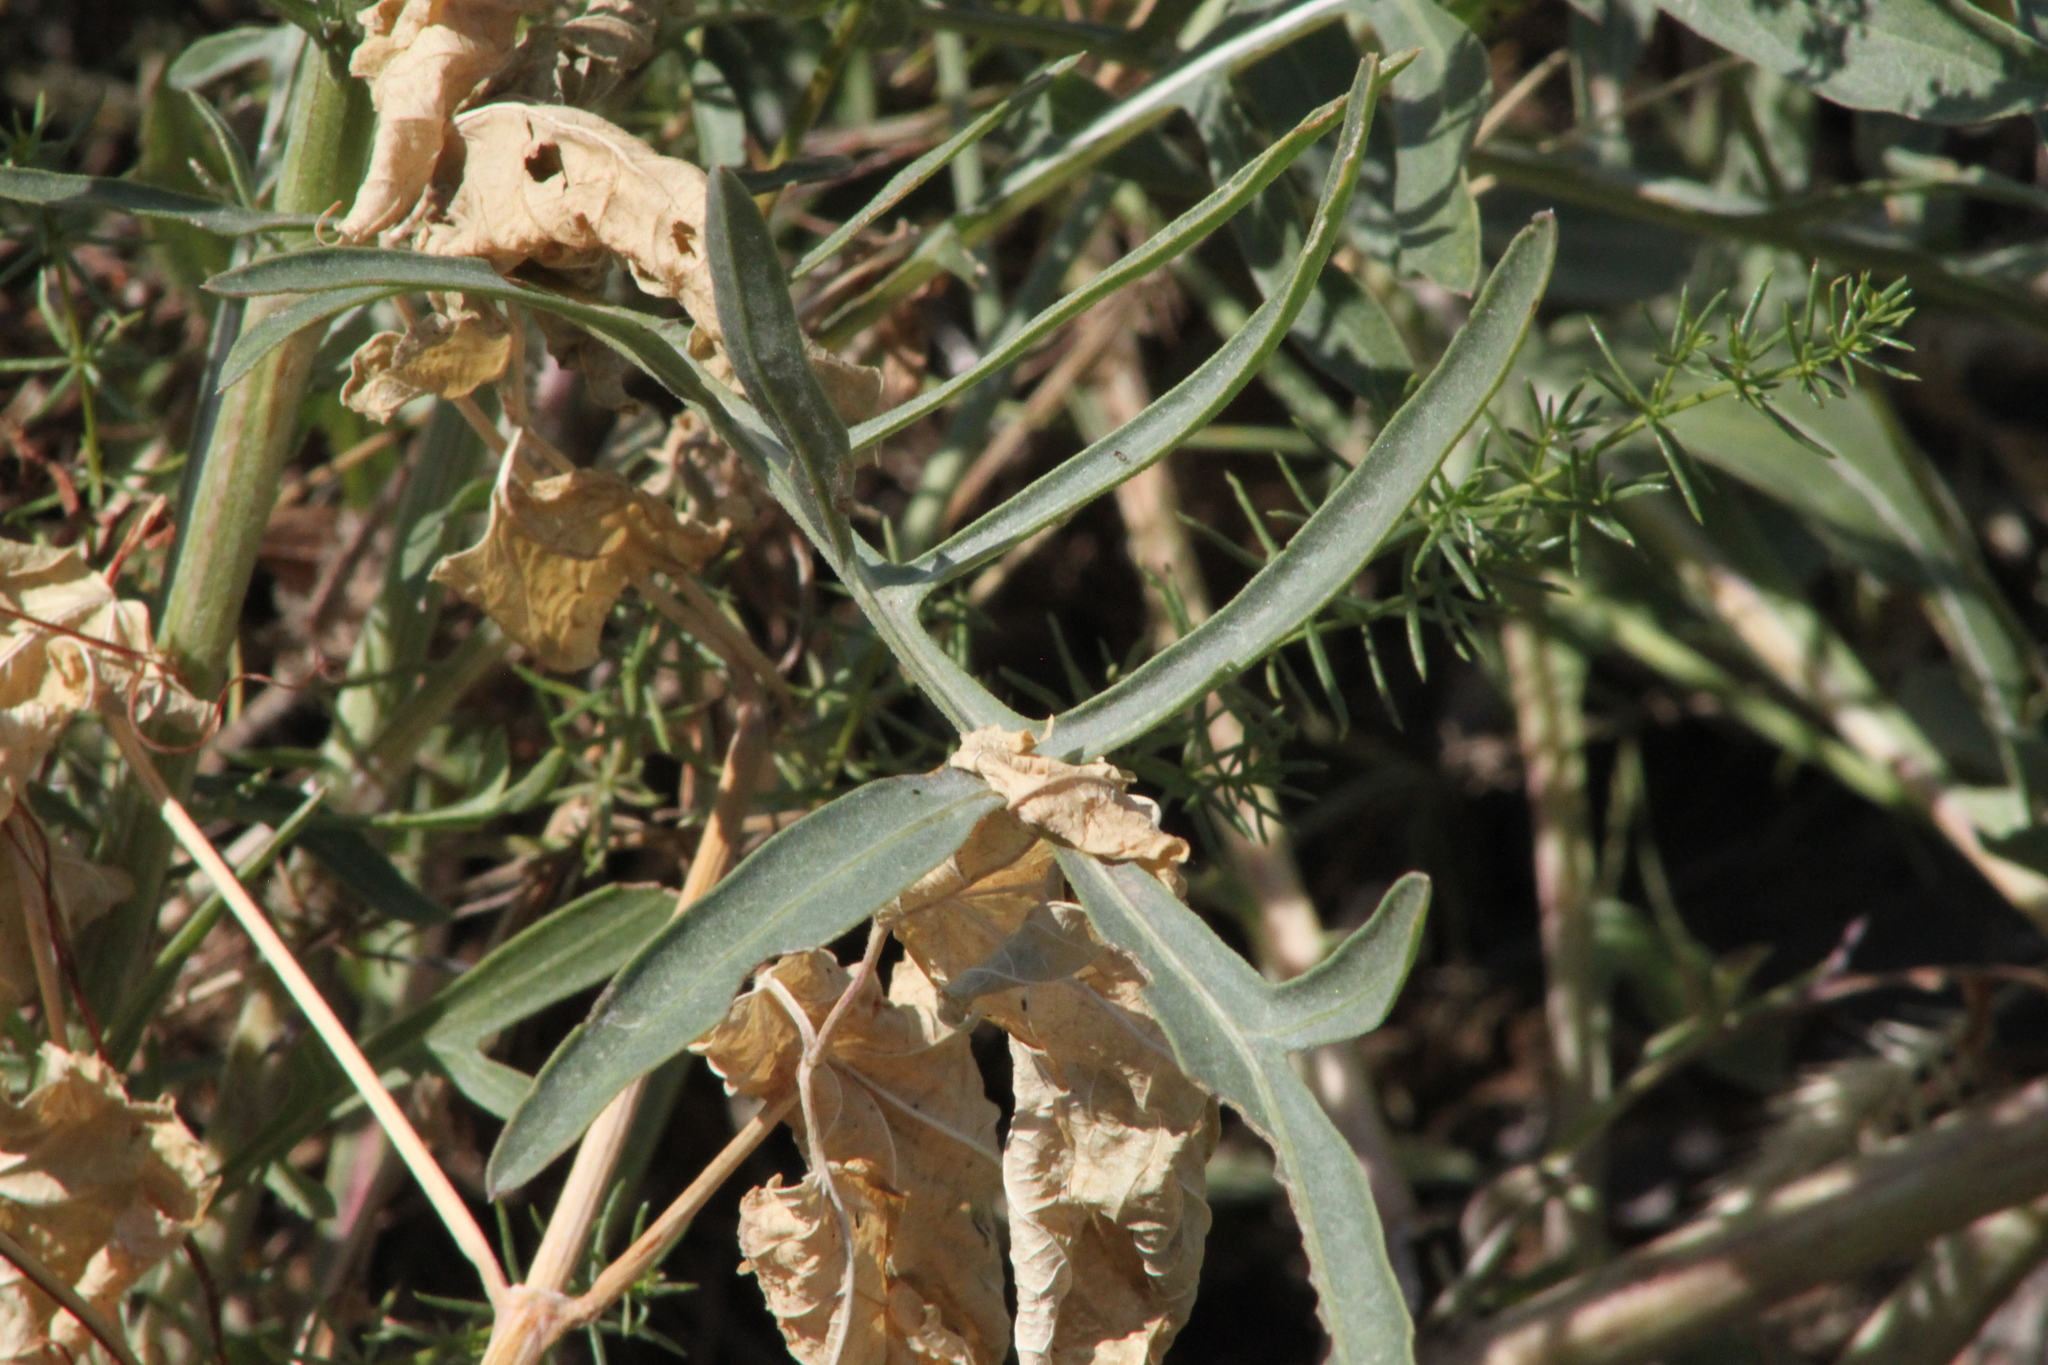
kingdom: Plantae
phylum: Tracheophyta
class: Magnoliopsida
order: Asterales
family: Asteraceae
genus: Centaurea
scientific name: Centaurea apiculata
